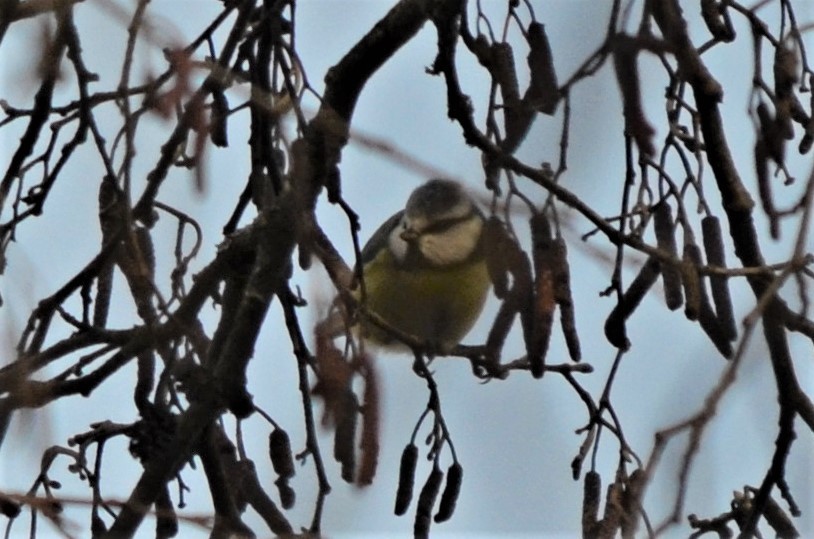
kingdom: Animalia
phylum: Chordata
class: Aves
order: Passeriformes
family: Paridae
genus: Cyanistes
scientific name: Cyanistes caeruleus
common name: Eurasian blue tit
